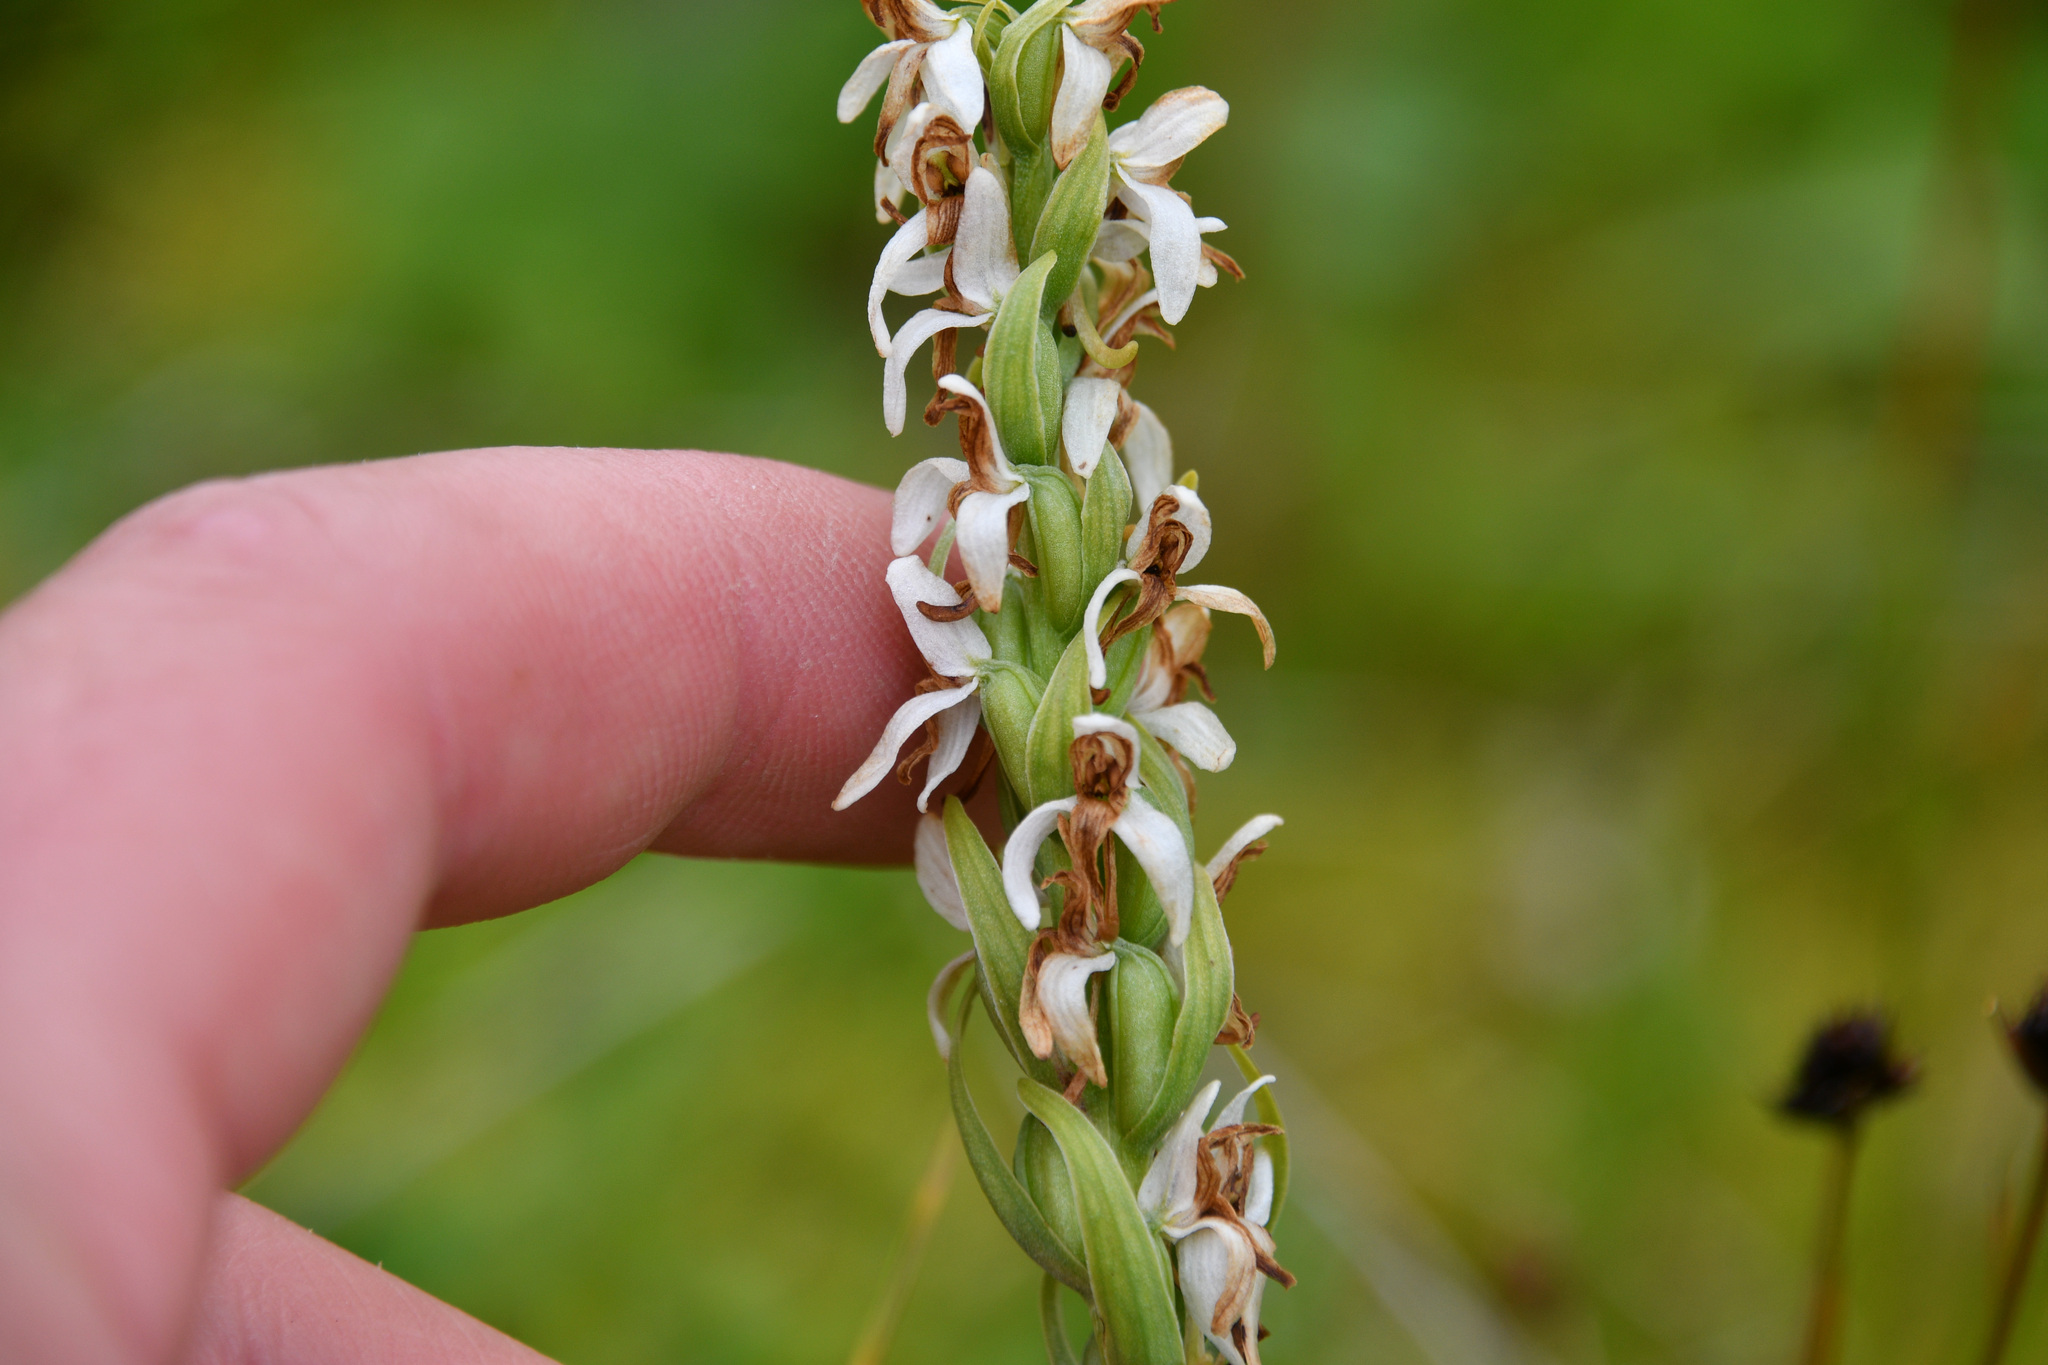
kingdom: Plantae
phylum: Tracheophyta
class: Liliopsida
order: Asparagales
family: Orchidaceae
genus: Platanthera
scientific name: Platanthera dilatata
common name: Bog candles
